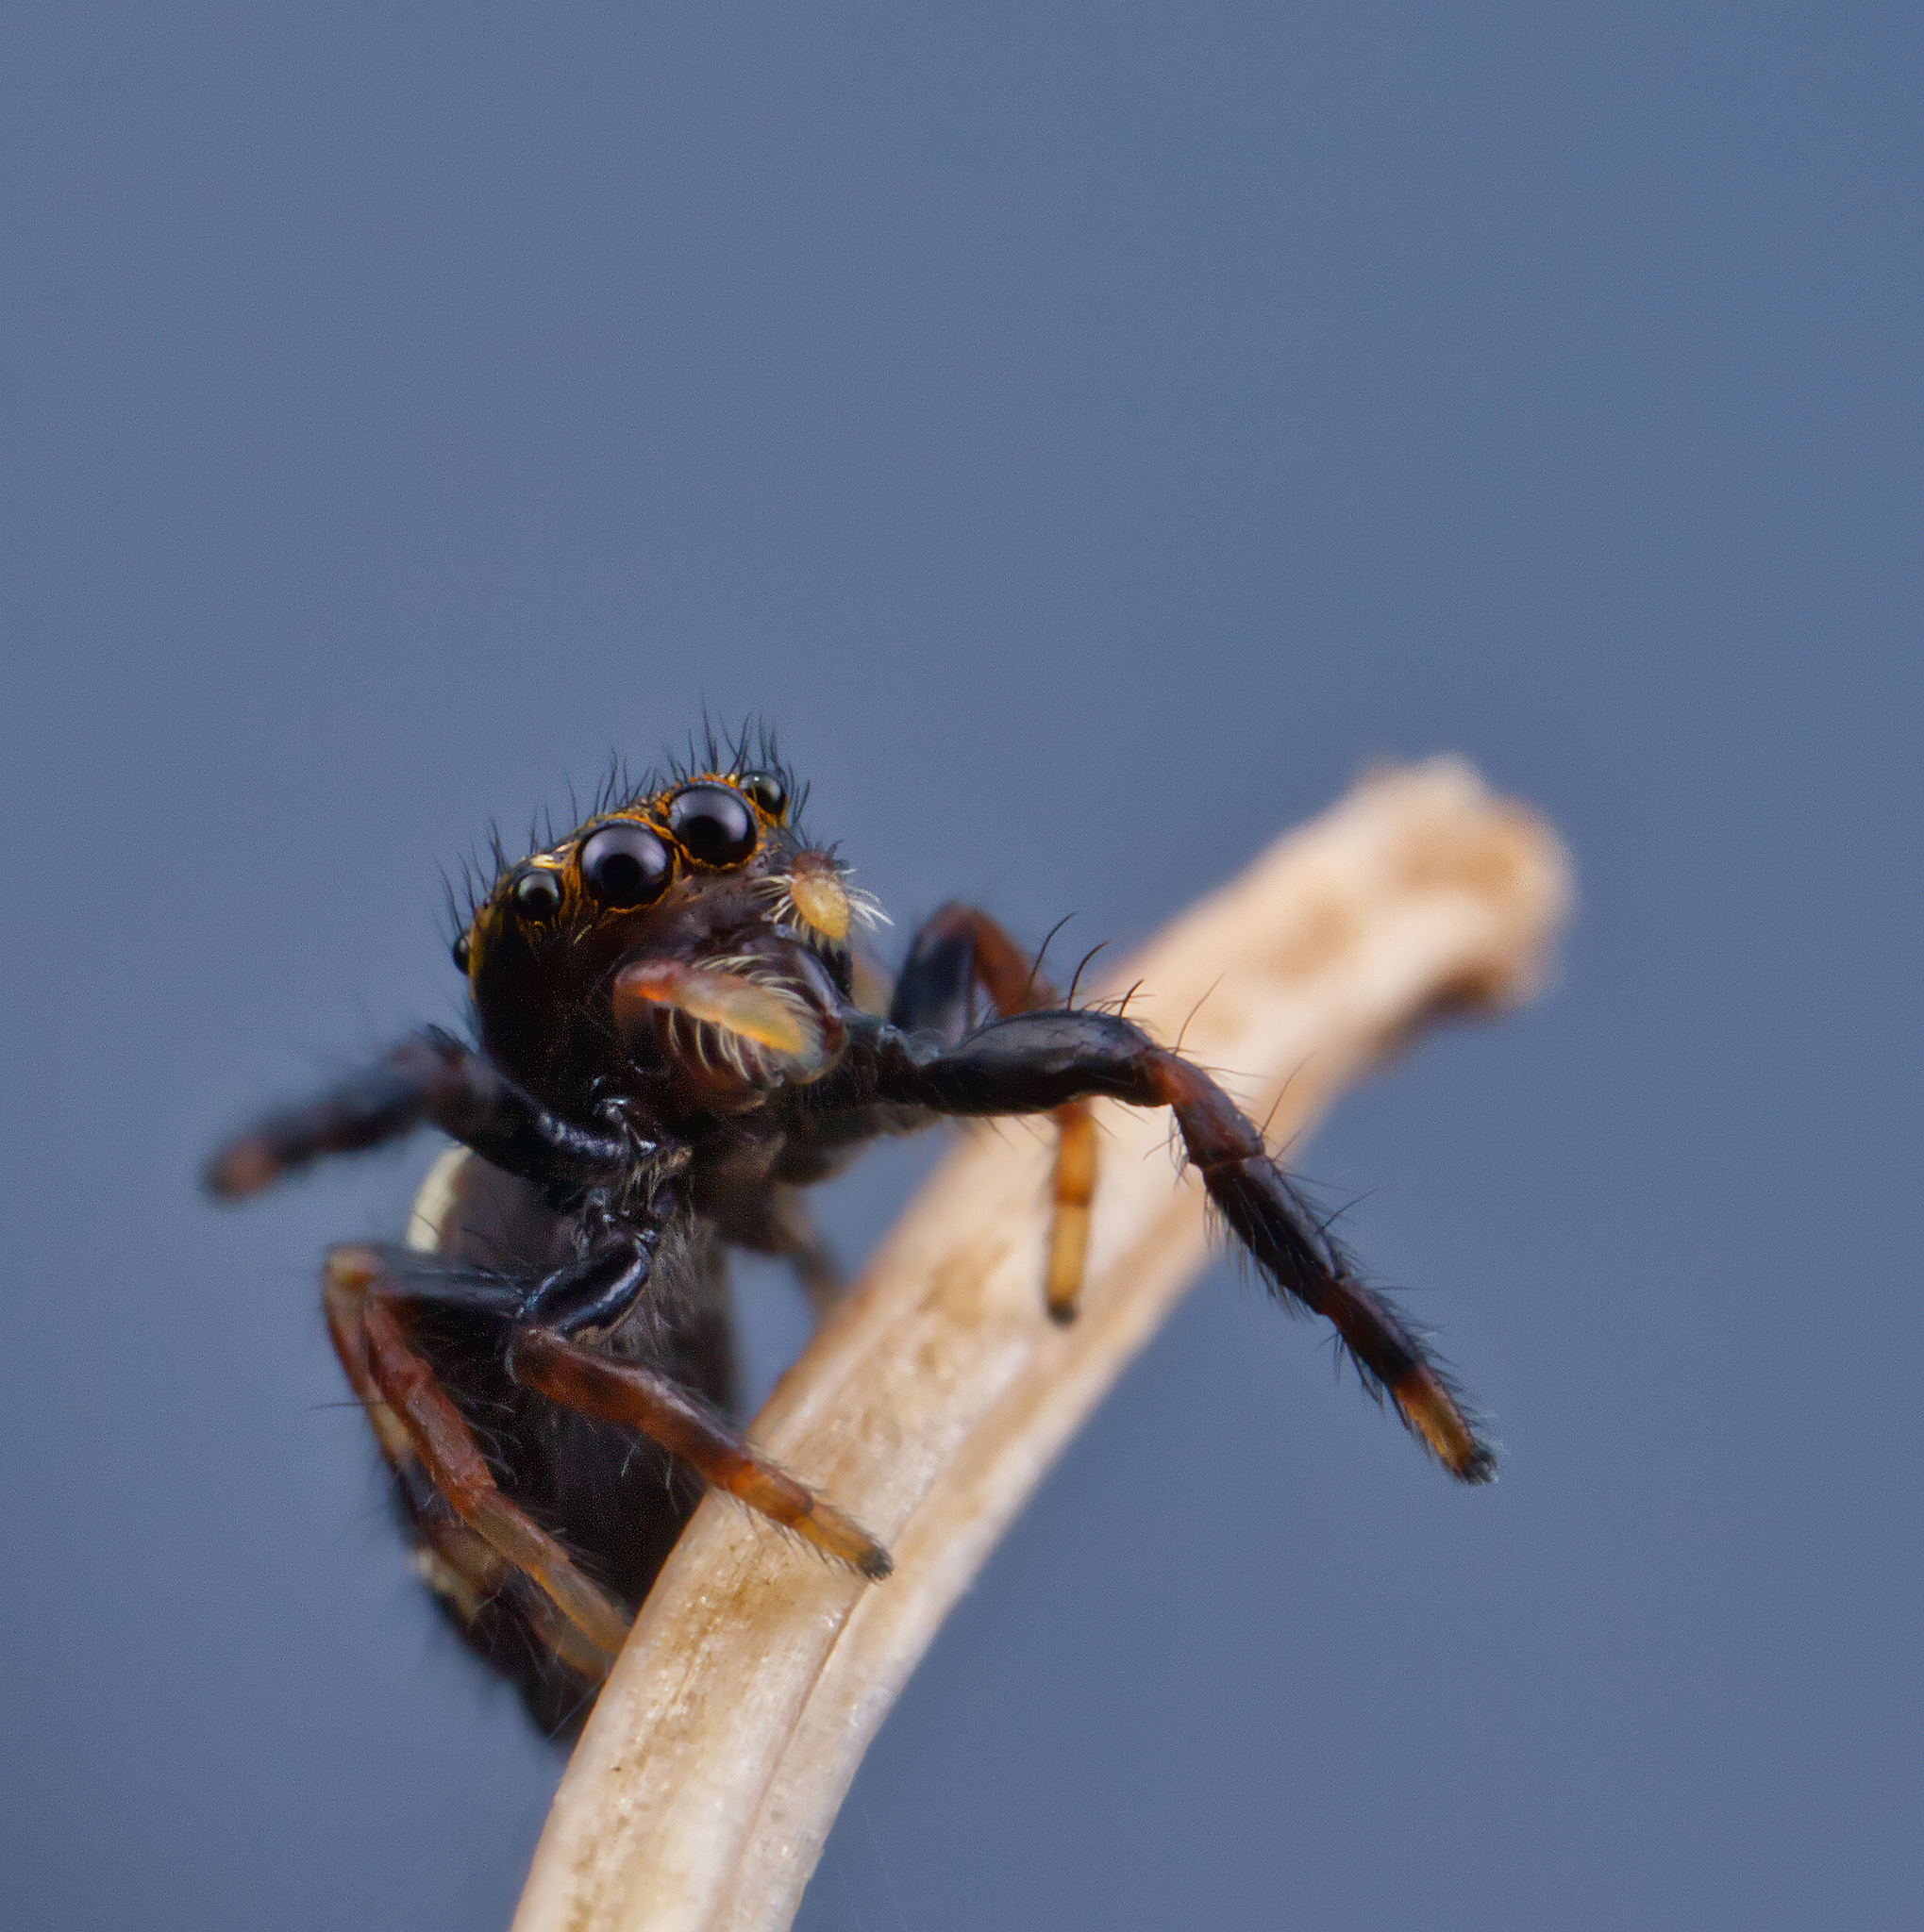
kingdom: Animalia
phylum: Arthropoda
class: Arachnida
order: Araneae
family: Salticidae
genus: Paraphidippus
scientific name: Paraphidippus aurantius
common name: Jumping spiders
